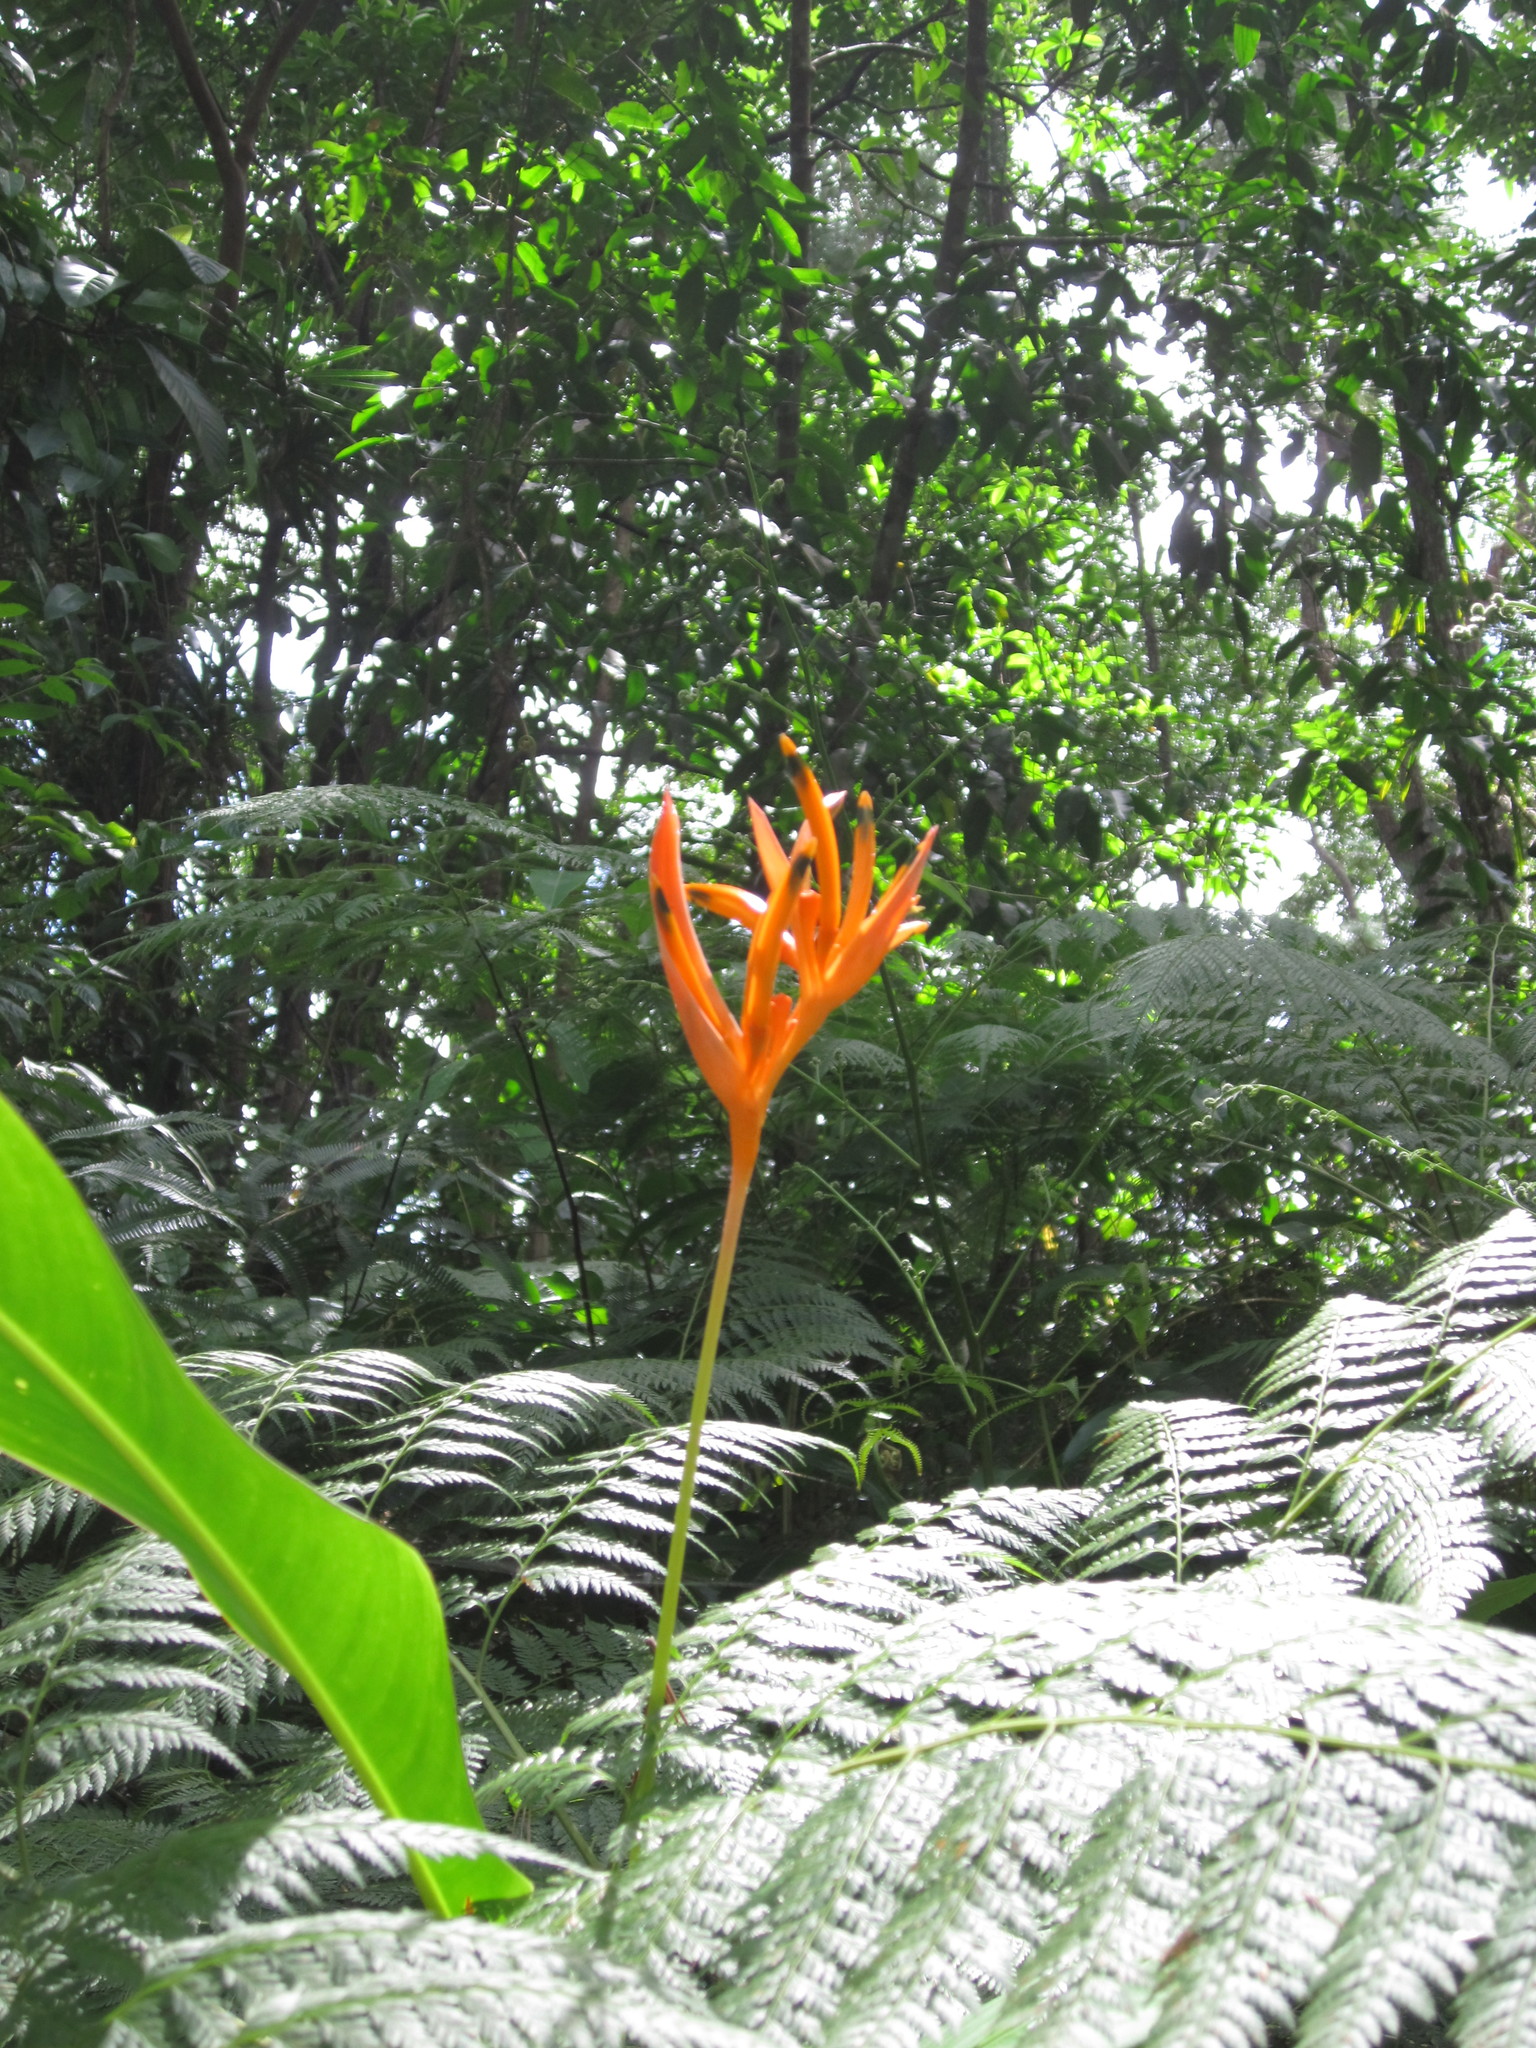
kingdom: Plantae
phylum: Tracheophyta
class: Liliopsida
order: Zingiberales
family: Heliconiaceae
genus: Heliconia
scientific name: Heliconia psittacorum
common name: Parrot's-flower
